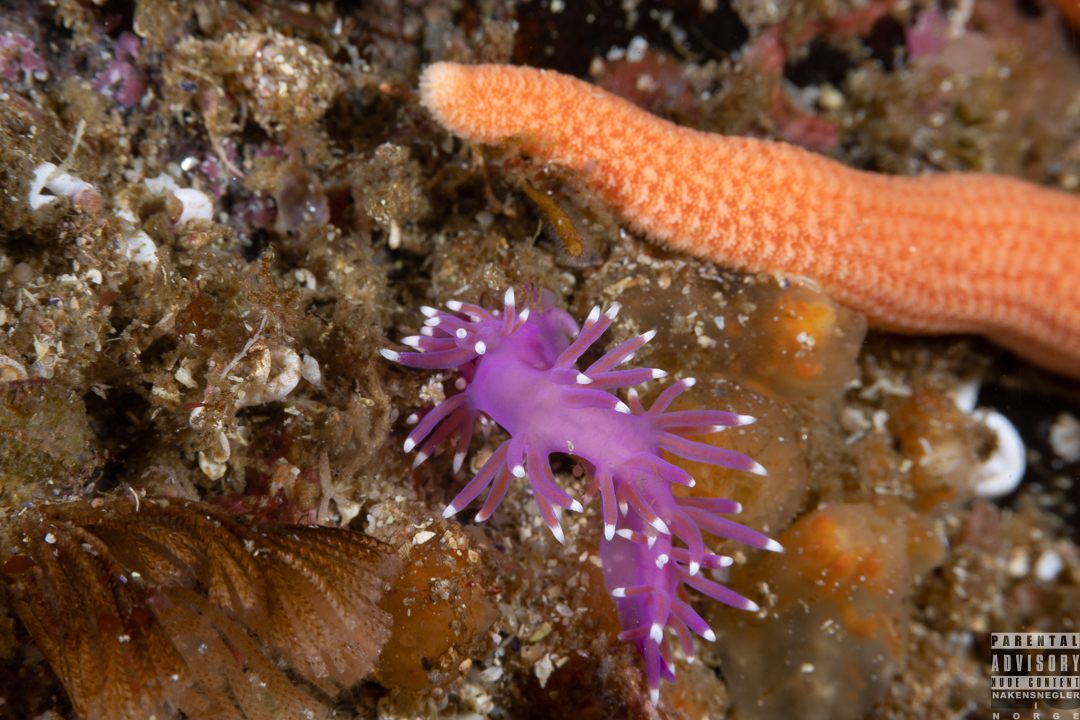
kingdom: Animalia
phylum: Mollusca
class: Gastropoda
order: Nudibranchia
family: Flabellinidae
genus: Edmundsella
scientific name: Edmundsella pedata
